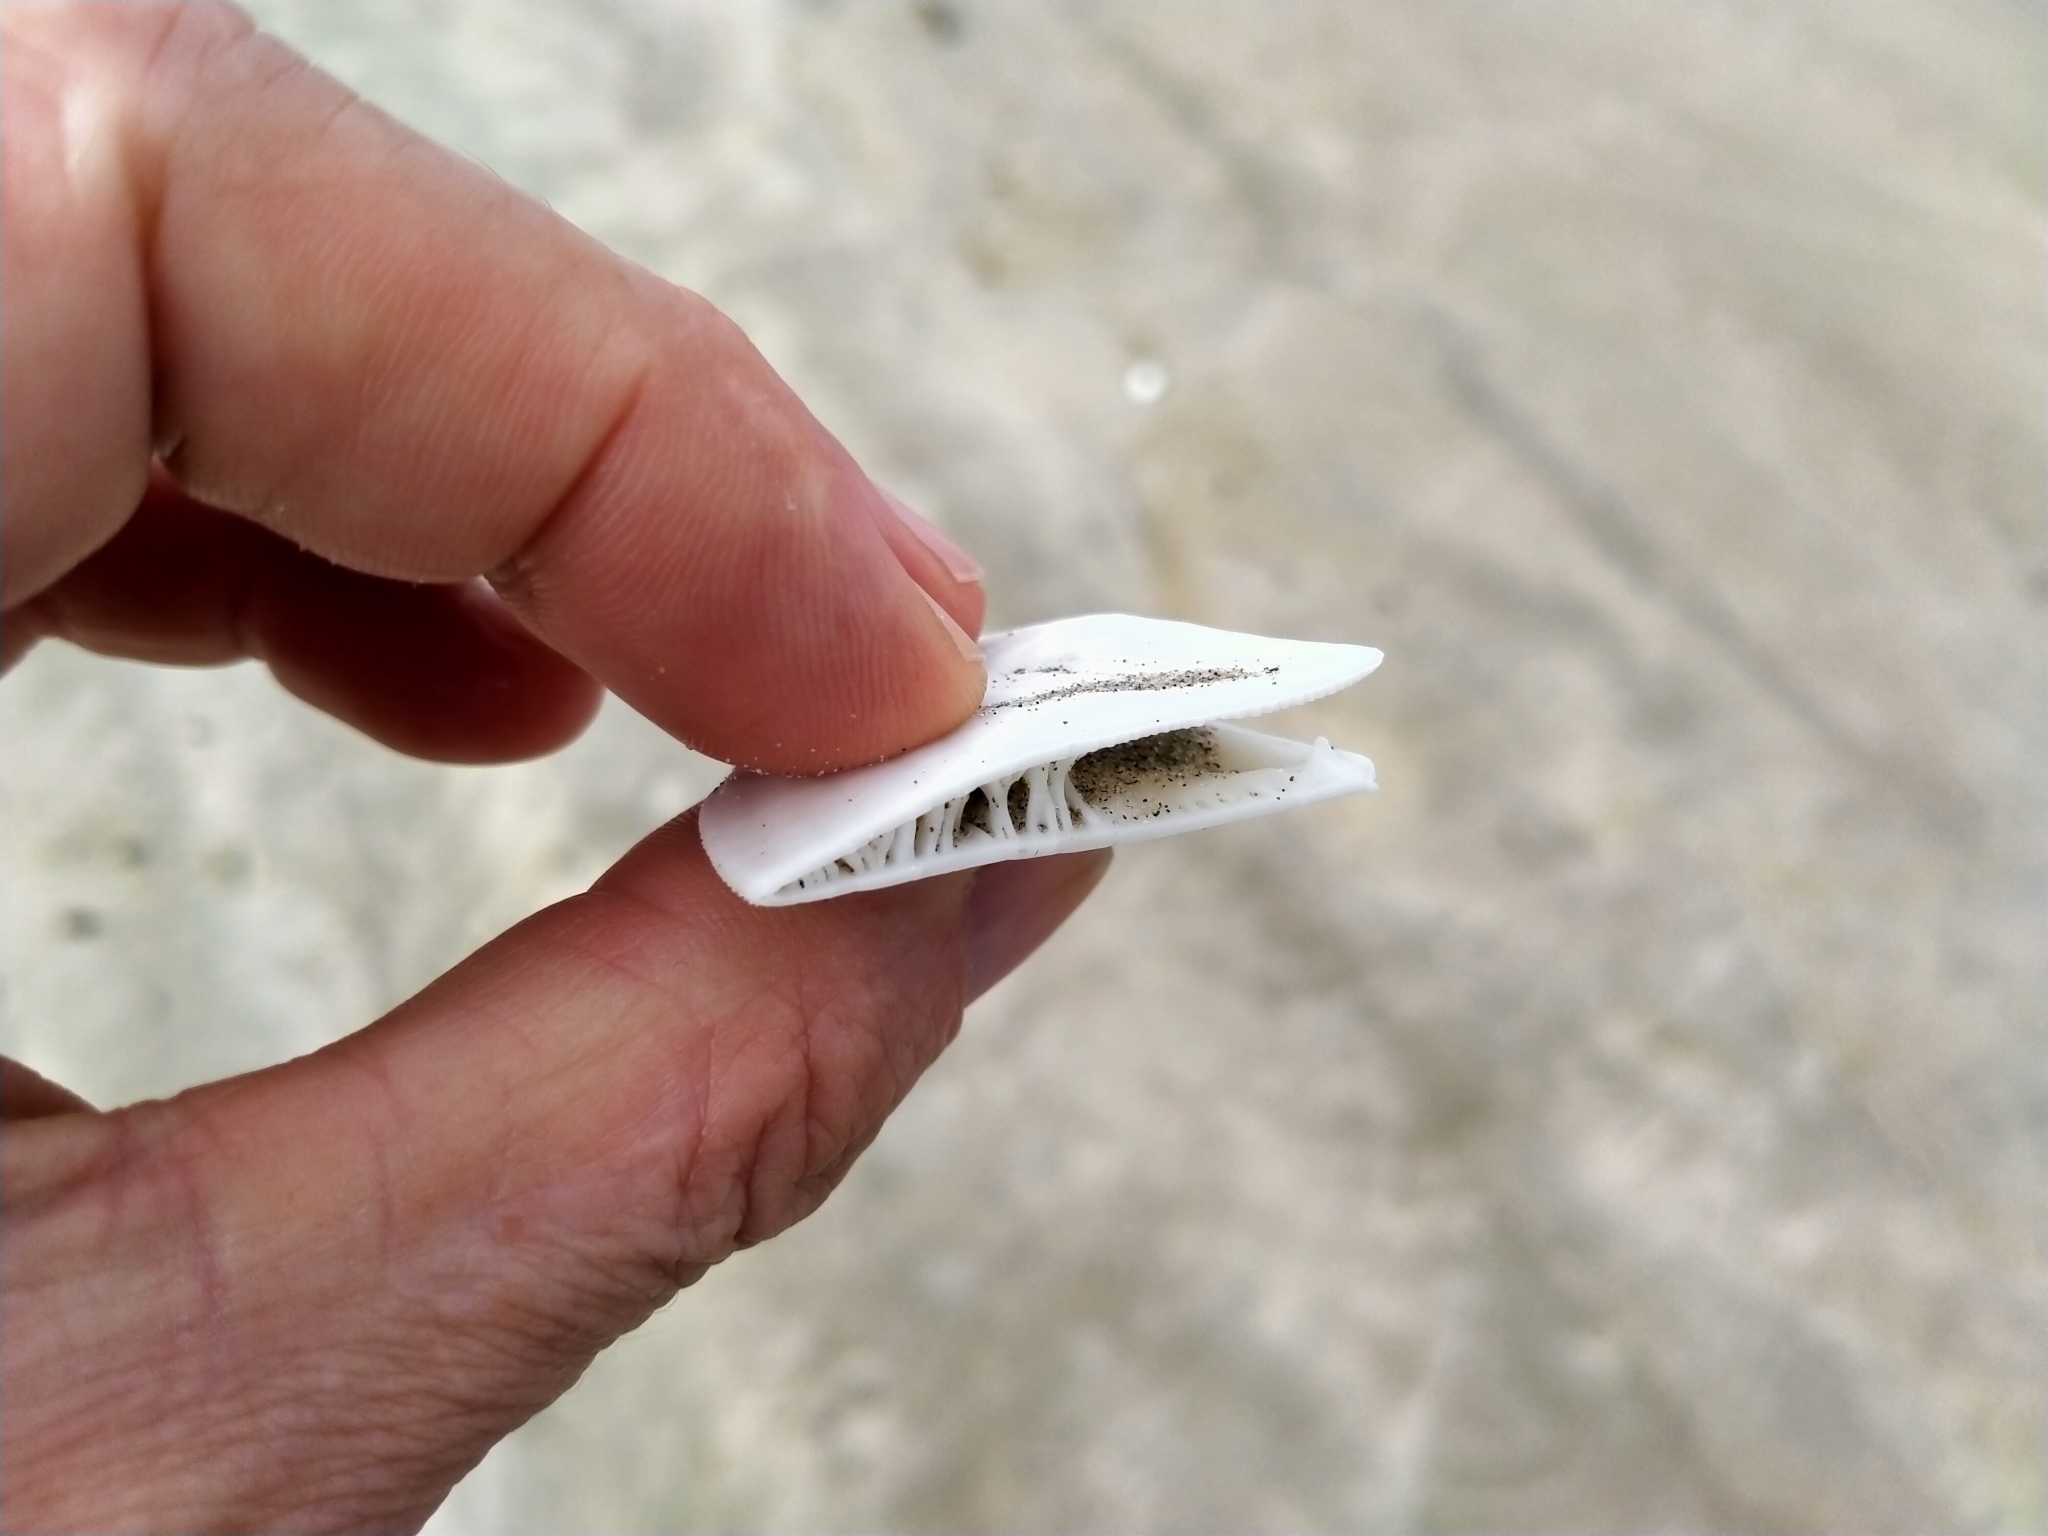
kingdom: Animalia
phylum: Echinodermata
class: Echinoidea
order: Clypeasteroida
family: Clypeasteridae
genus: Fellaster
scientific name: Fellaster zelandiae
